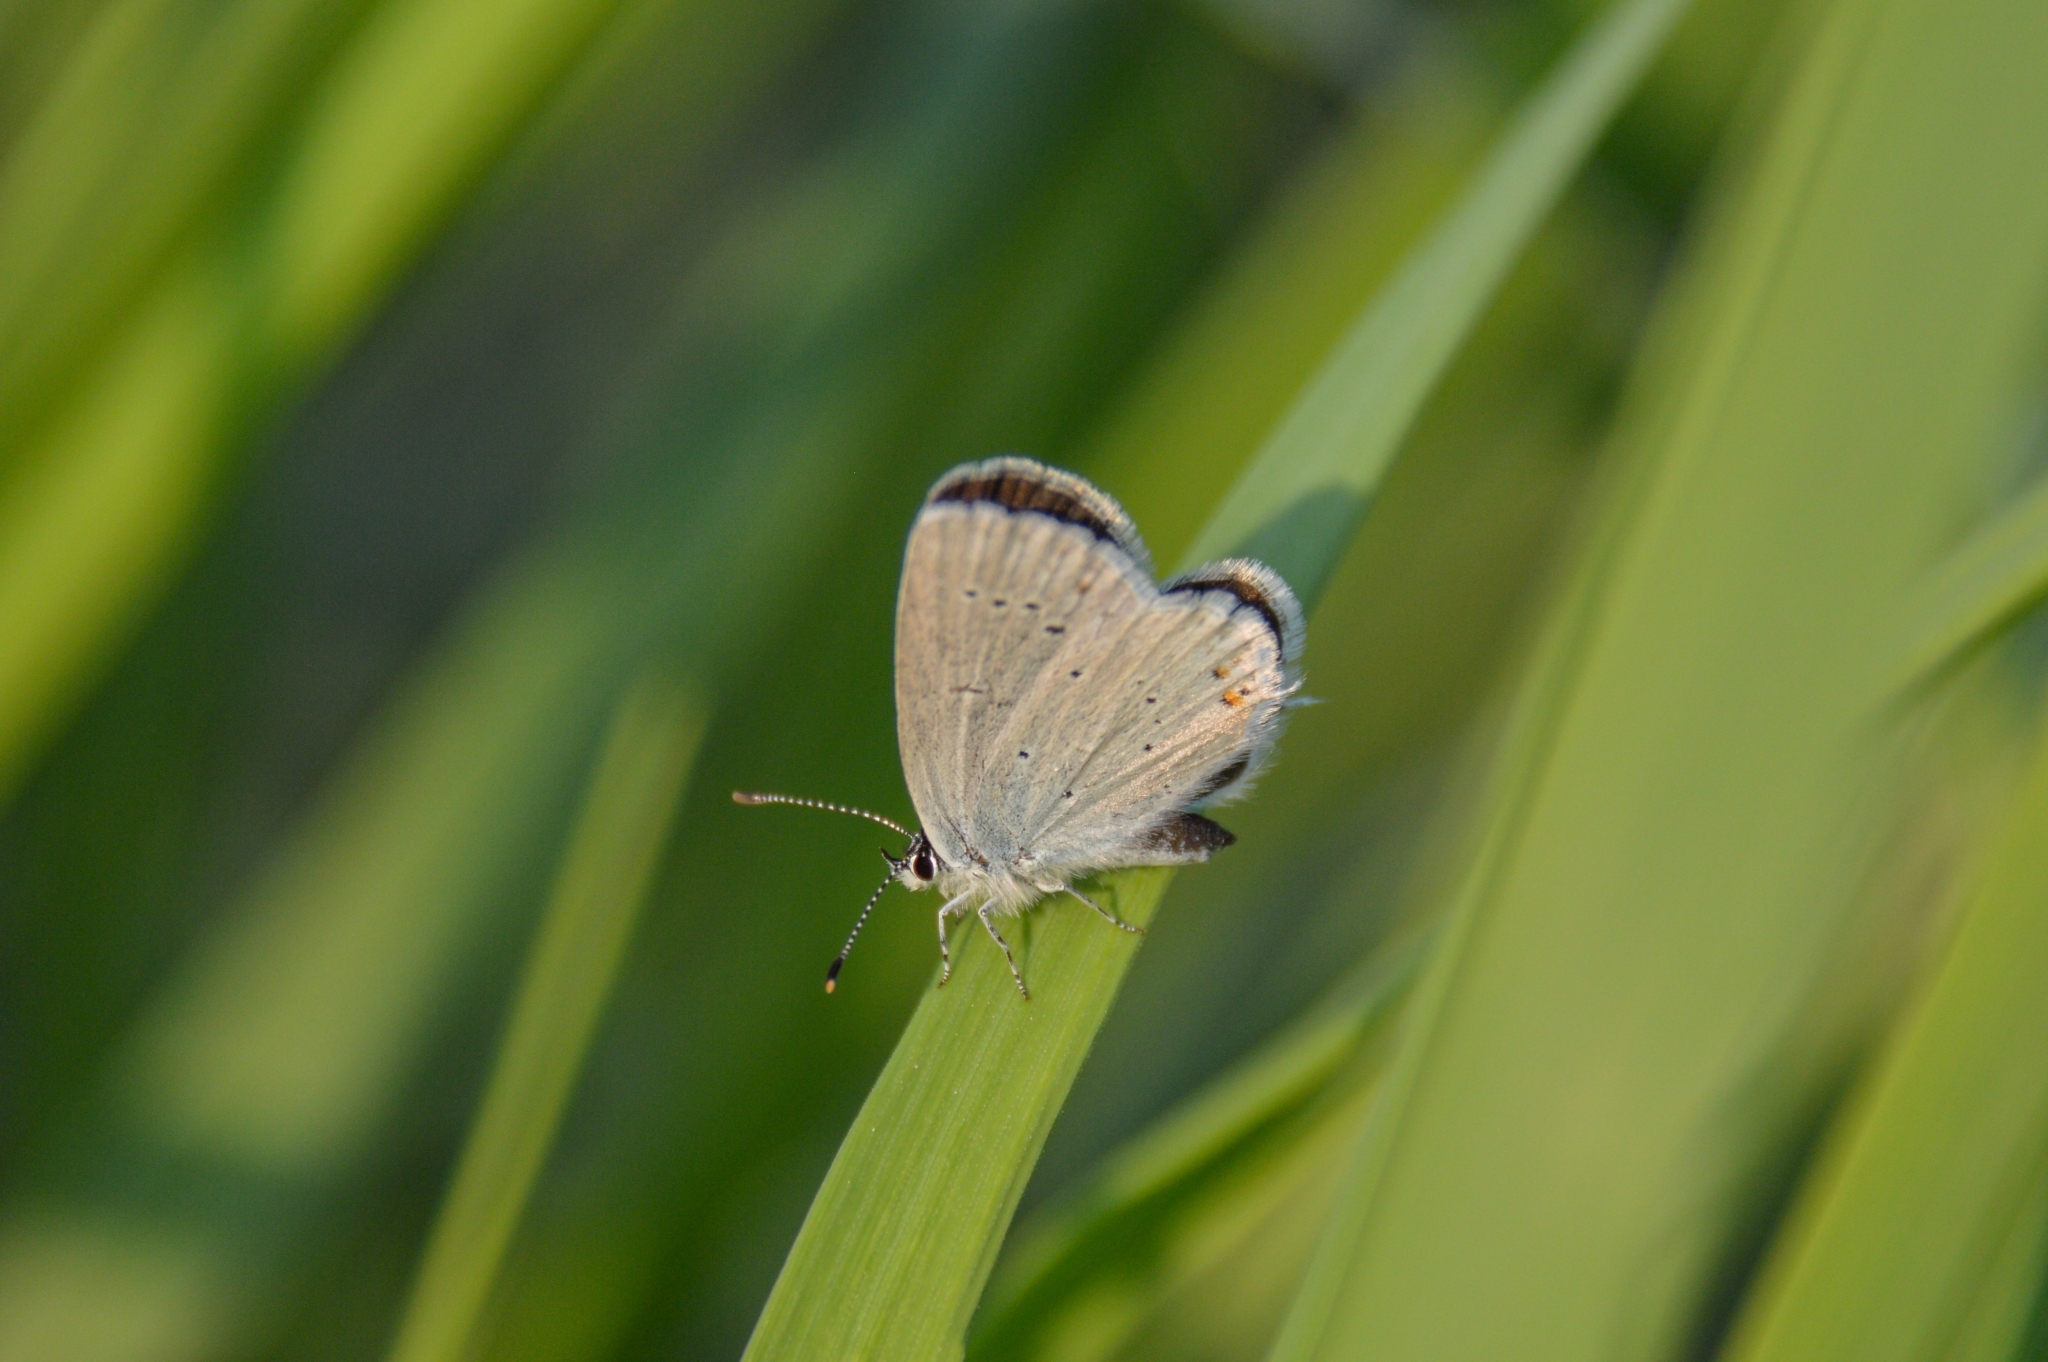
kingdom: Animalia
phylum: Arthropoda
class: Insecta
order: Lepidoptera
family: Lycaenidae
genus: Elkalyce
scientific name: Elkalyce argiades
